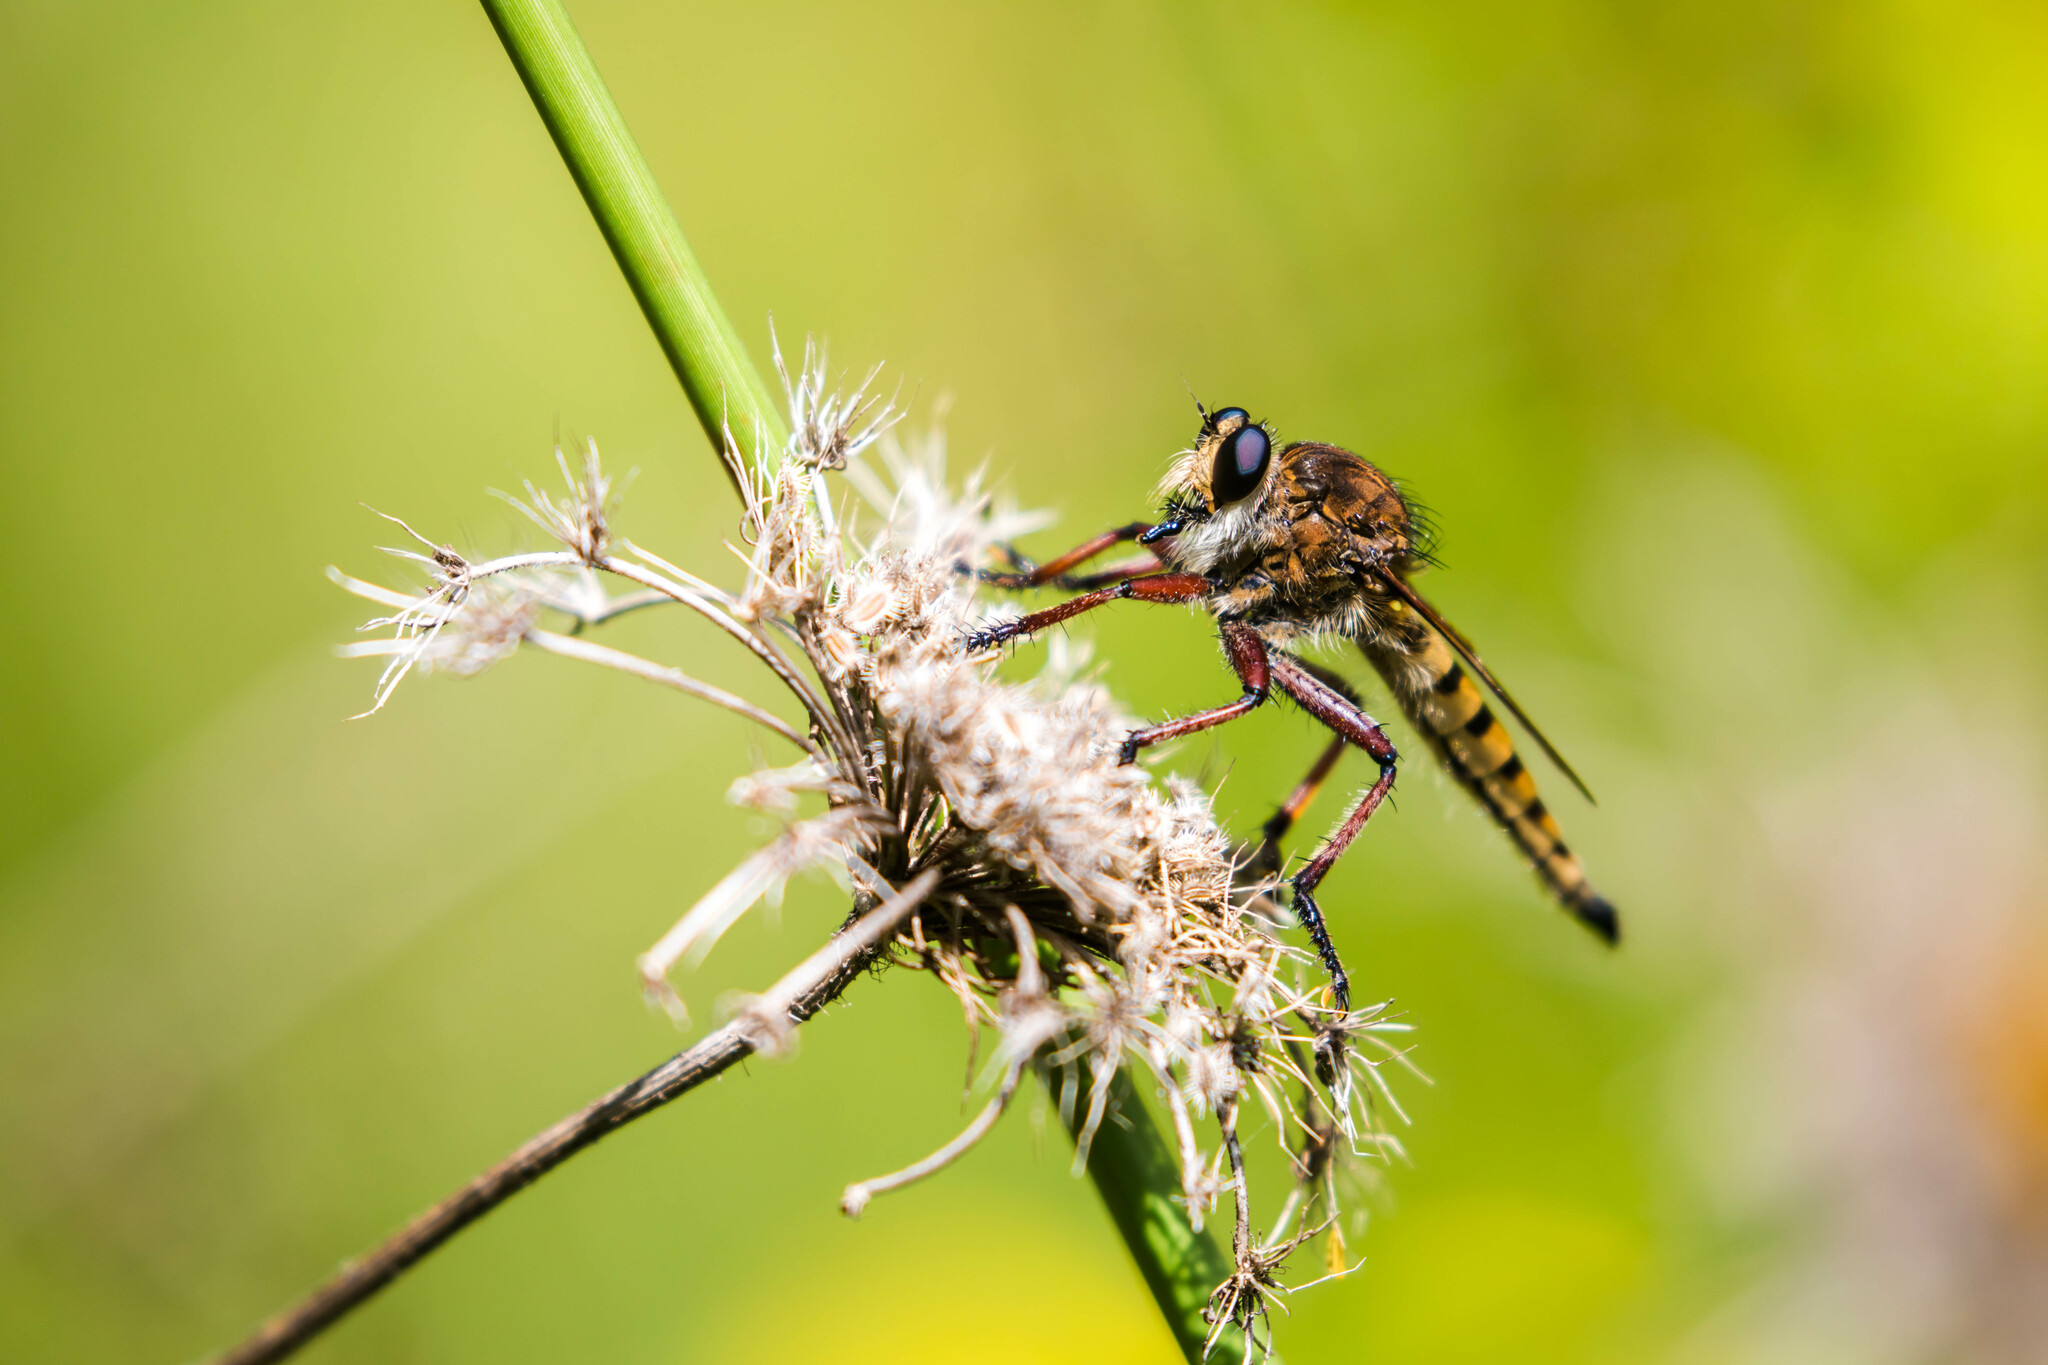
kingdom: Animalia
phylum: Arthropoda
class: Insecta
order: Diptera
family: Asilidae
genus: Promachus
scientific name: Promachus hinei
